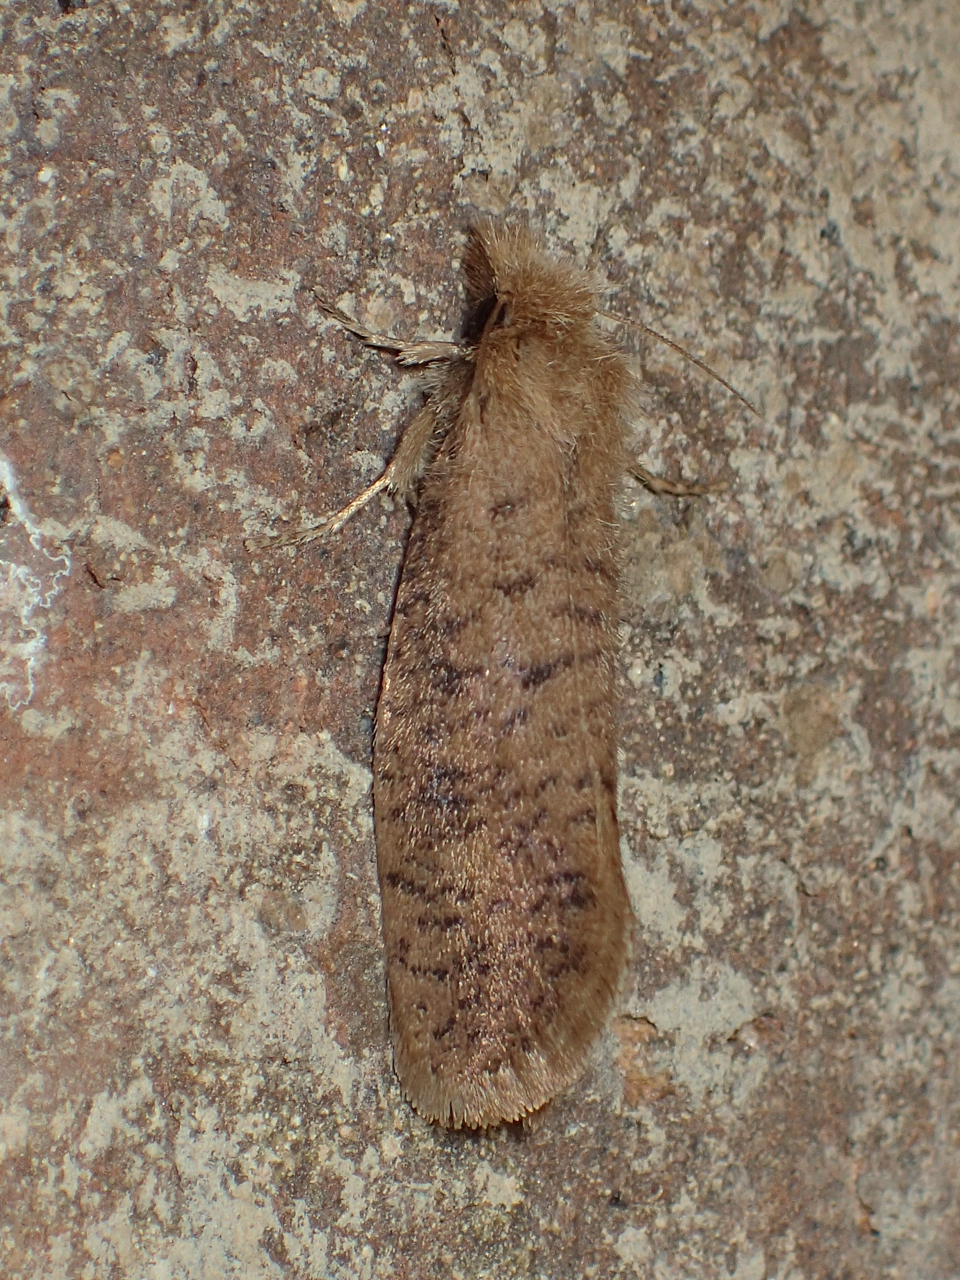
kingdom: Animalia
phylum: Arthropoda
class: Insecta
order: Lepidoptera
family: Tineidae
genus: Acrolophus
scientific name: Acrolophus propinqua
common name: Walsingham's grass tubeworm moth
